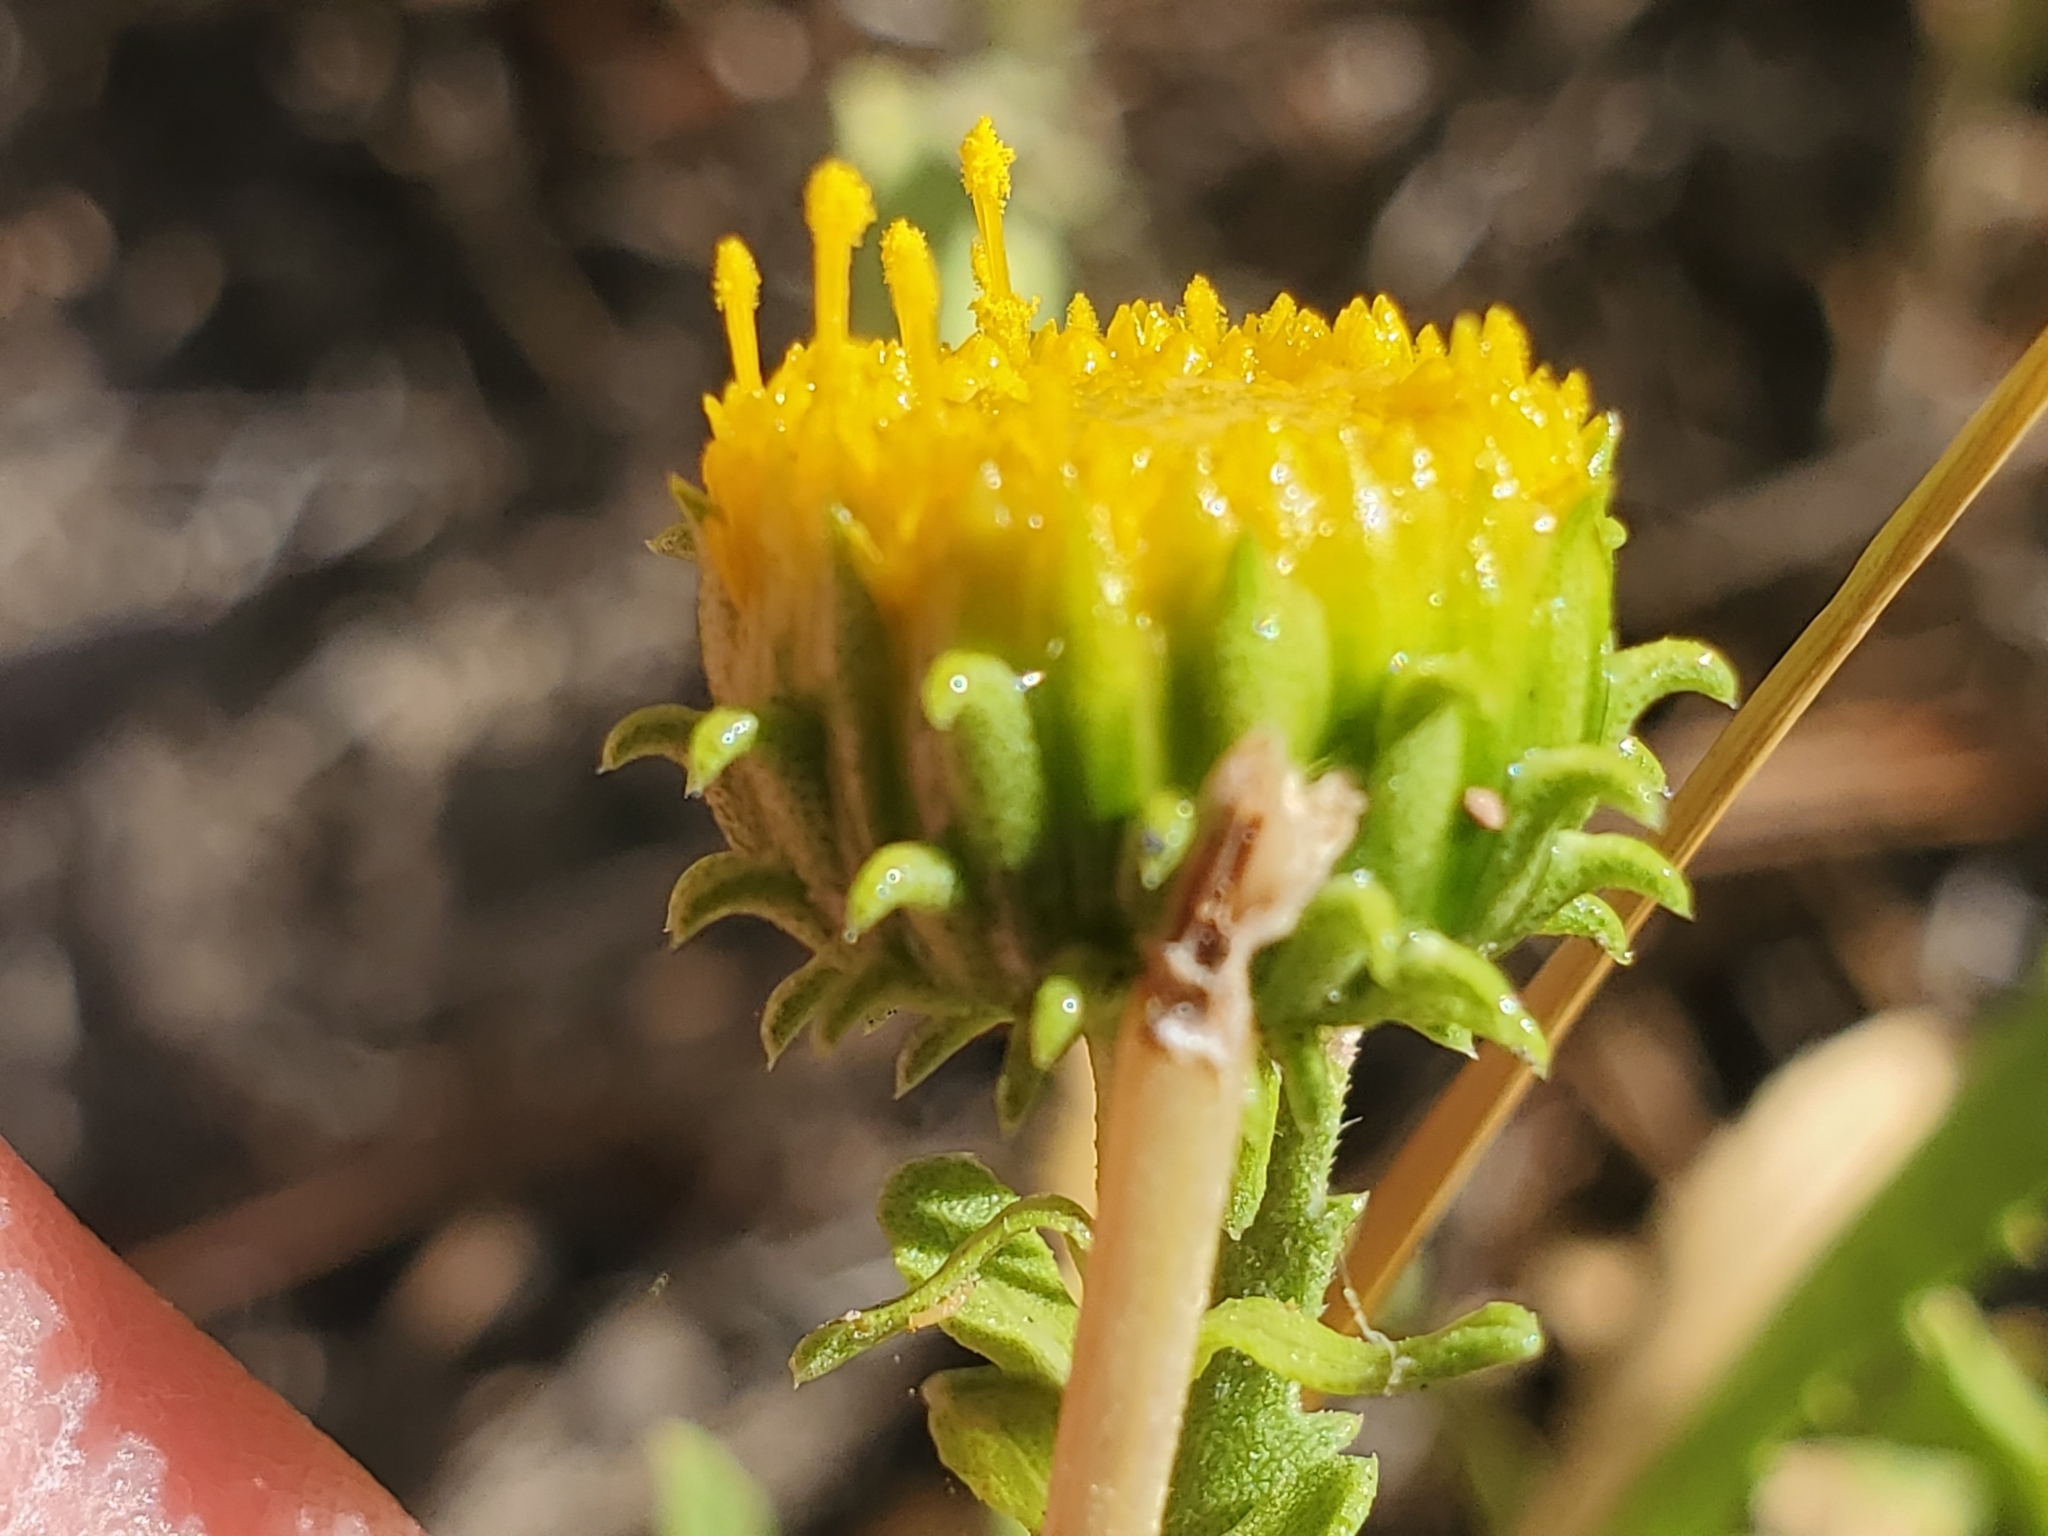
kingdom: Plantae
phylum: Tracheophyta
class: Magnoliopsida
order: Asterales
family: Asteraceae
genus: Grindelia
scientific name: Grindelia nuda
